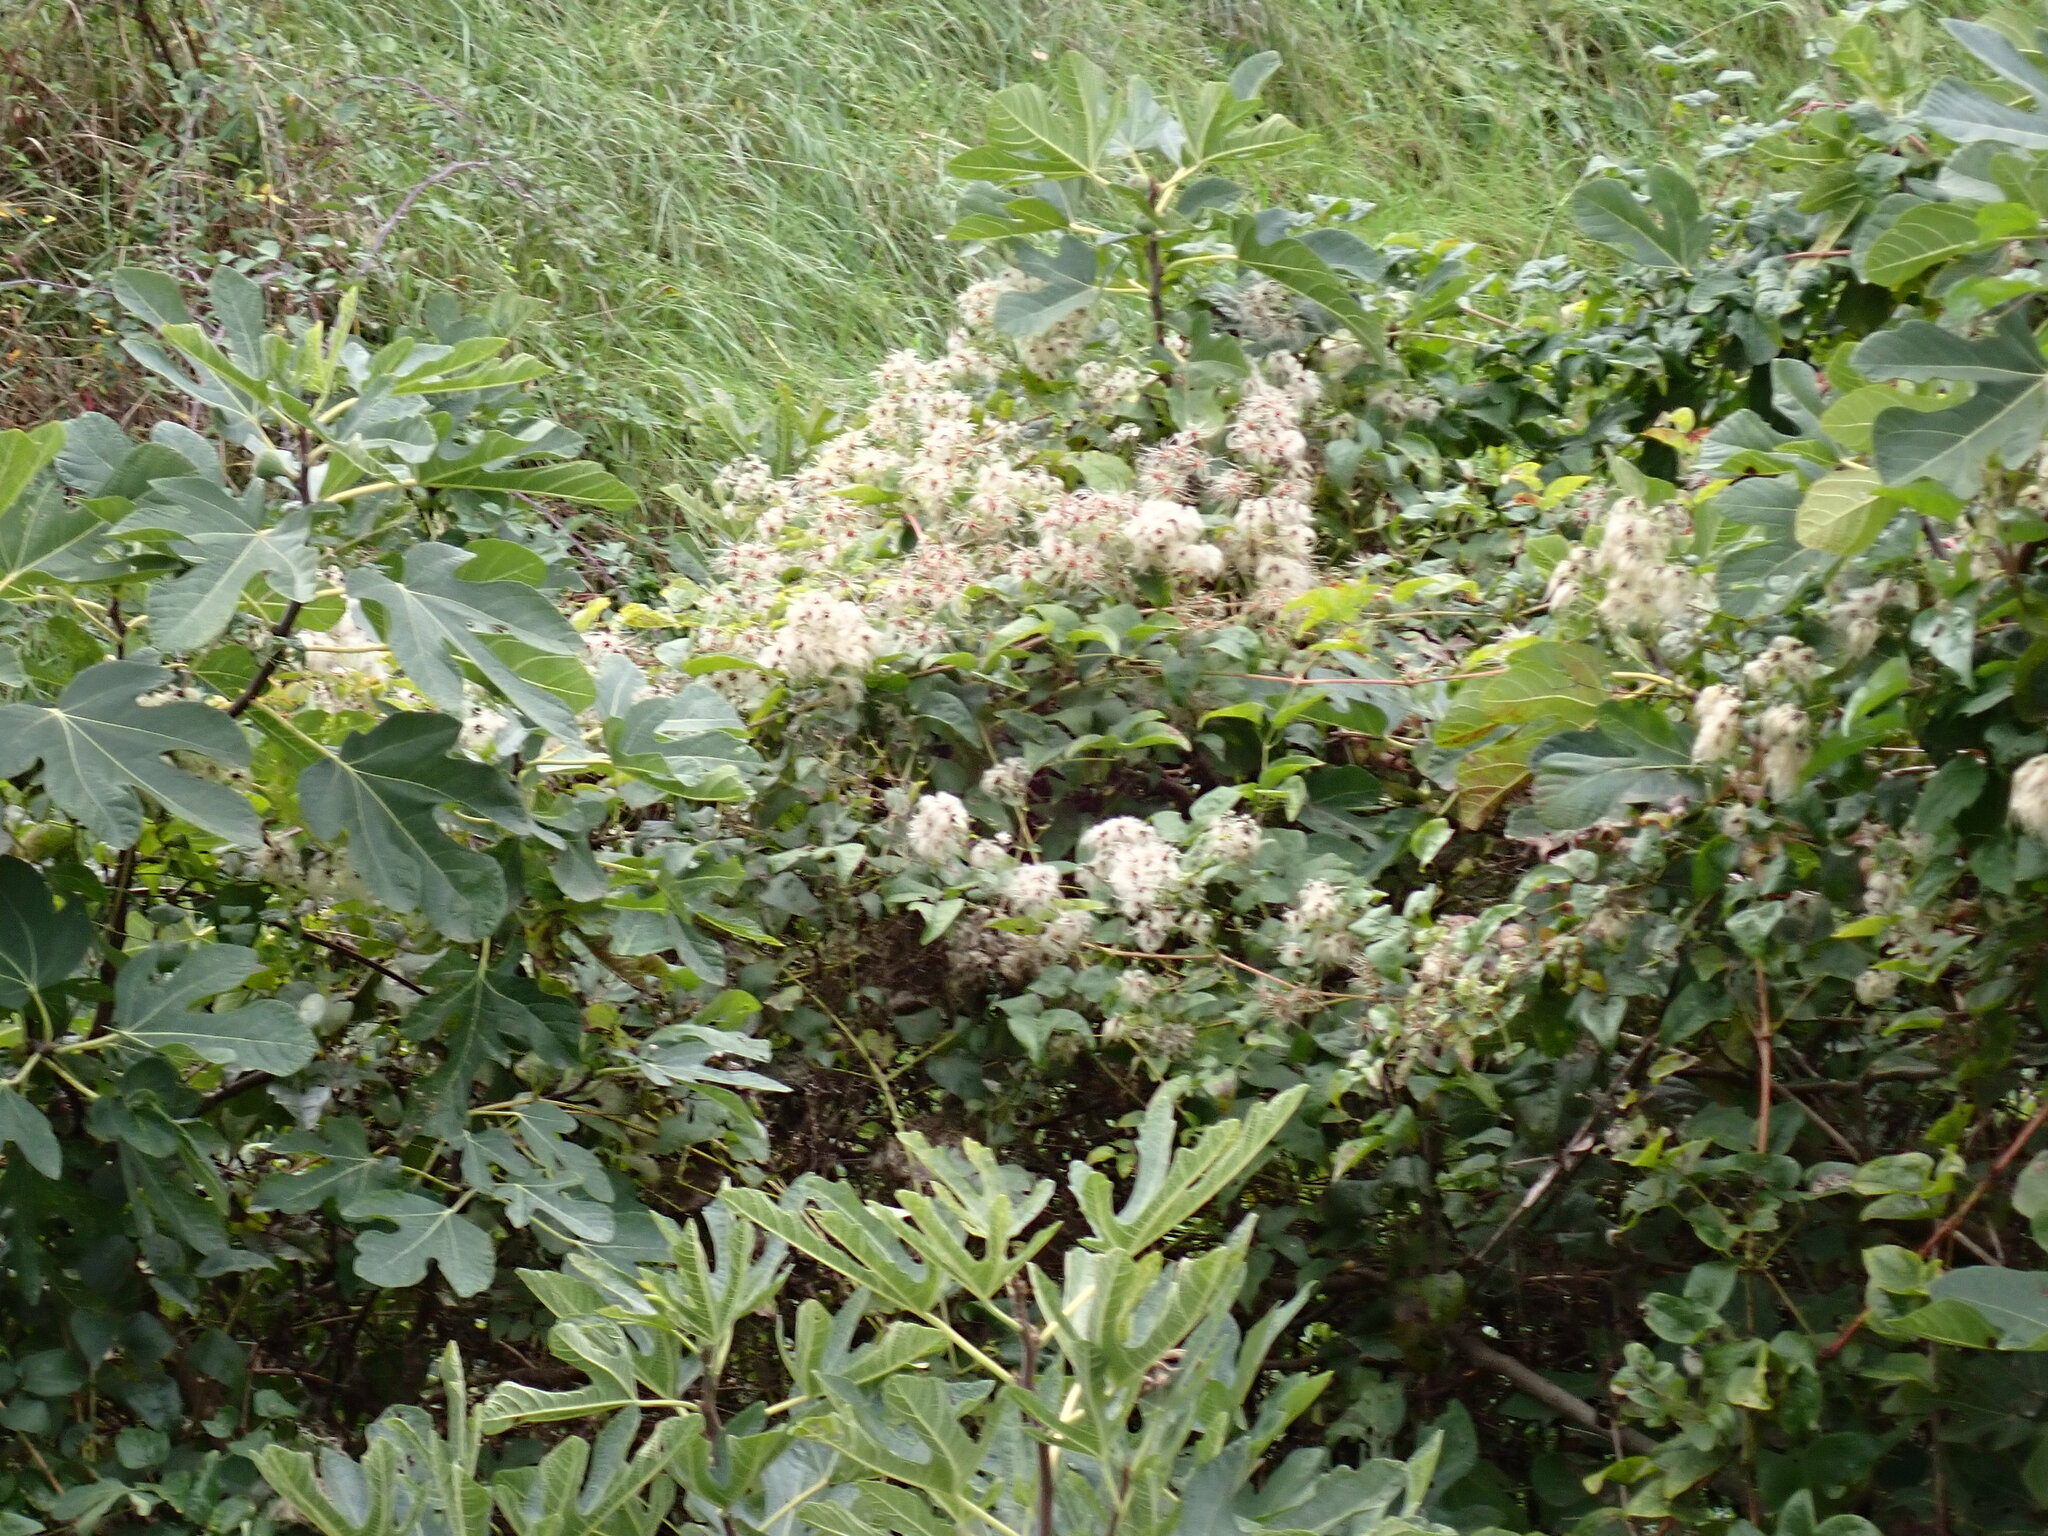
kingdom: Plantae
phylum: Tracheophyta
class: Magnoliopsida
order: Ranunculales
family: Ranunculaceae
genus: Clematis
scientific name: Clematis vitalba
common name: Evergreen clematis
